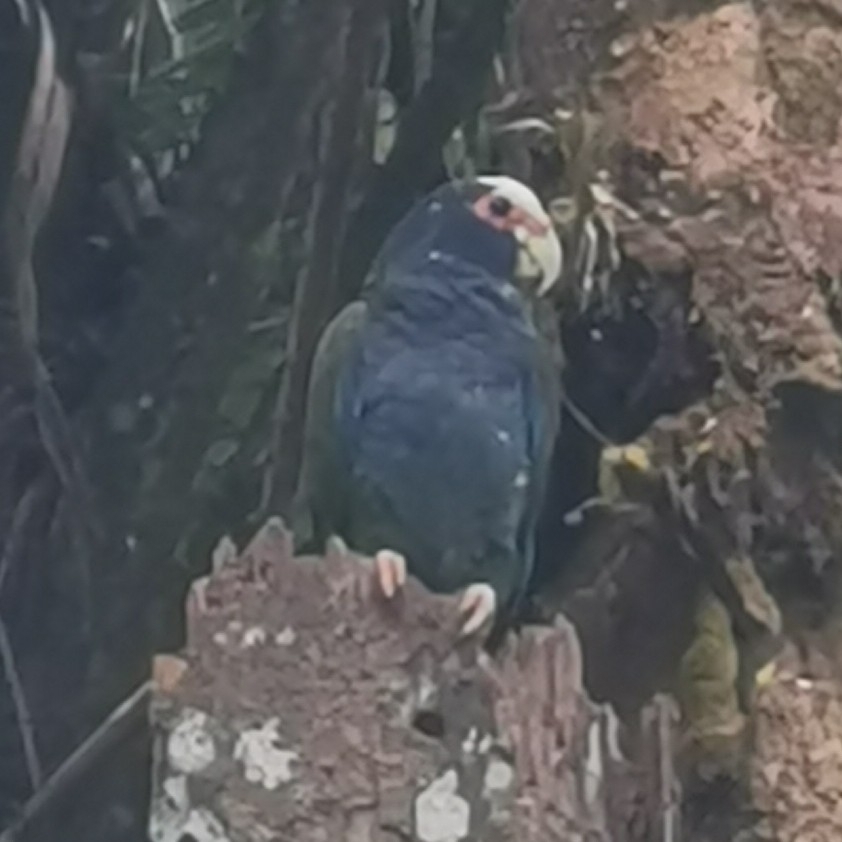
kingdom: Animalia
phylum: Chordata
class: Aves
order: Psittaciformes
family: Psittacidae
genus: Pionus
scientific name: Pionus senilis
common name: White-crowned parrot
